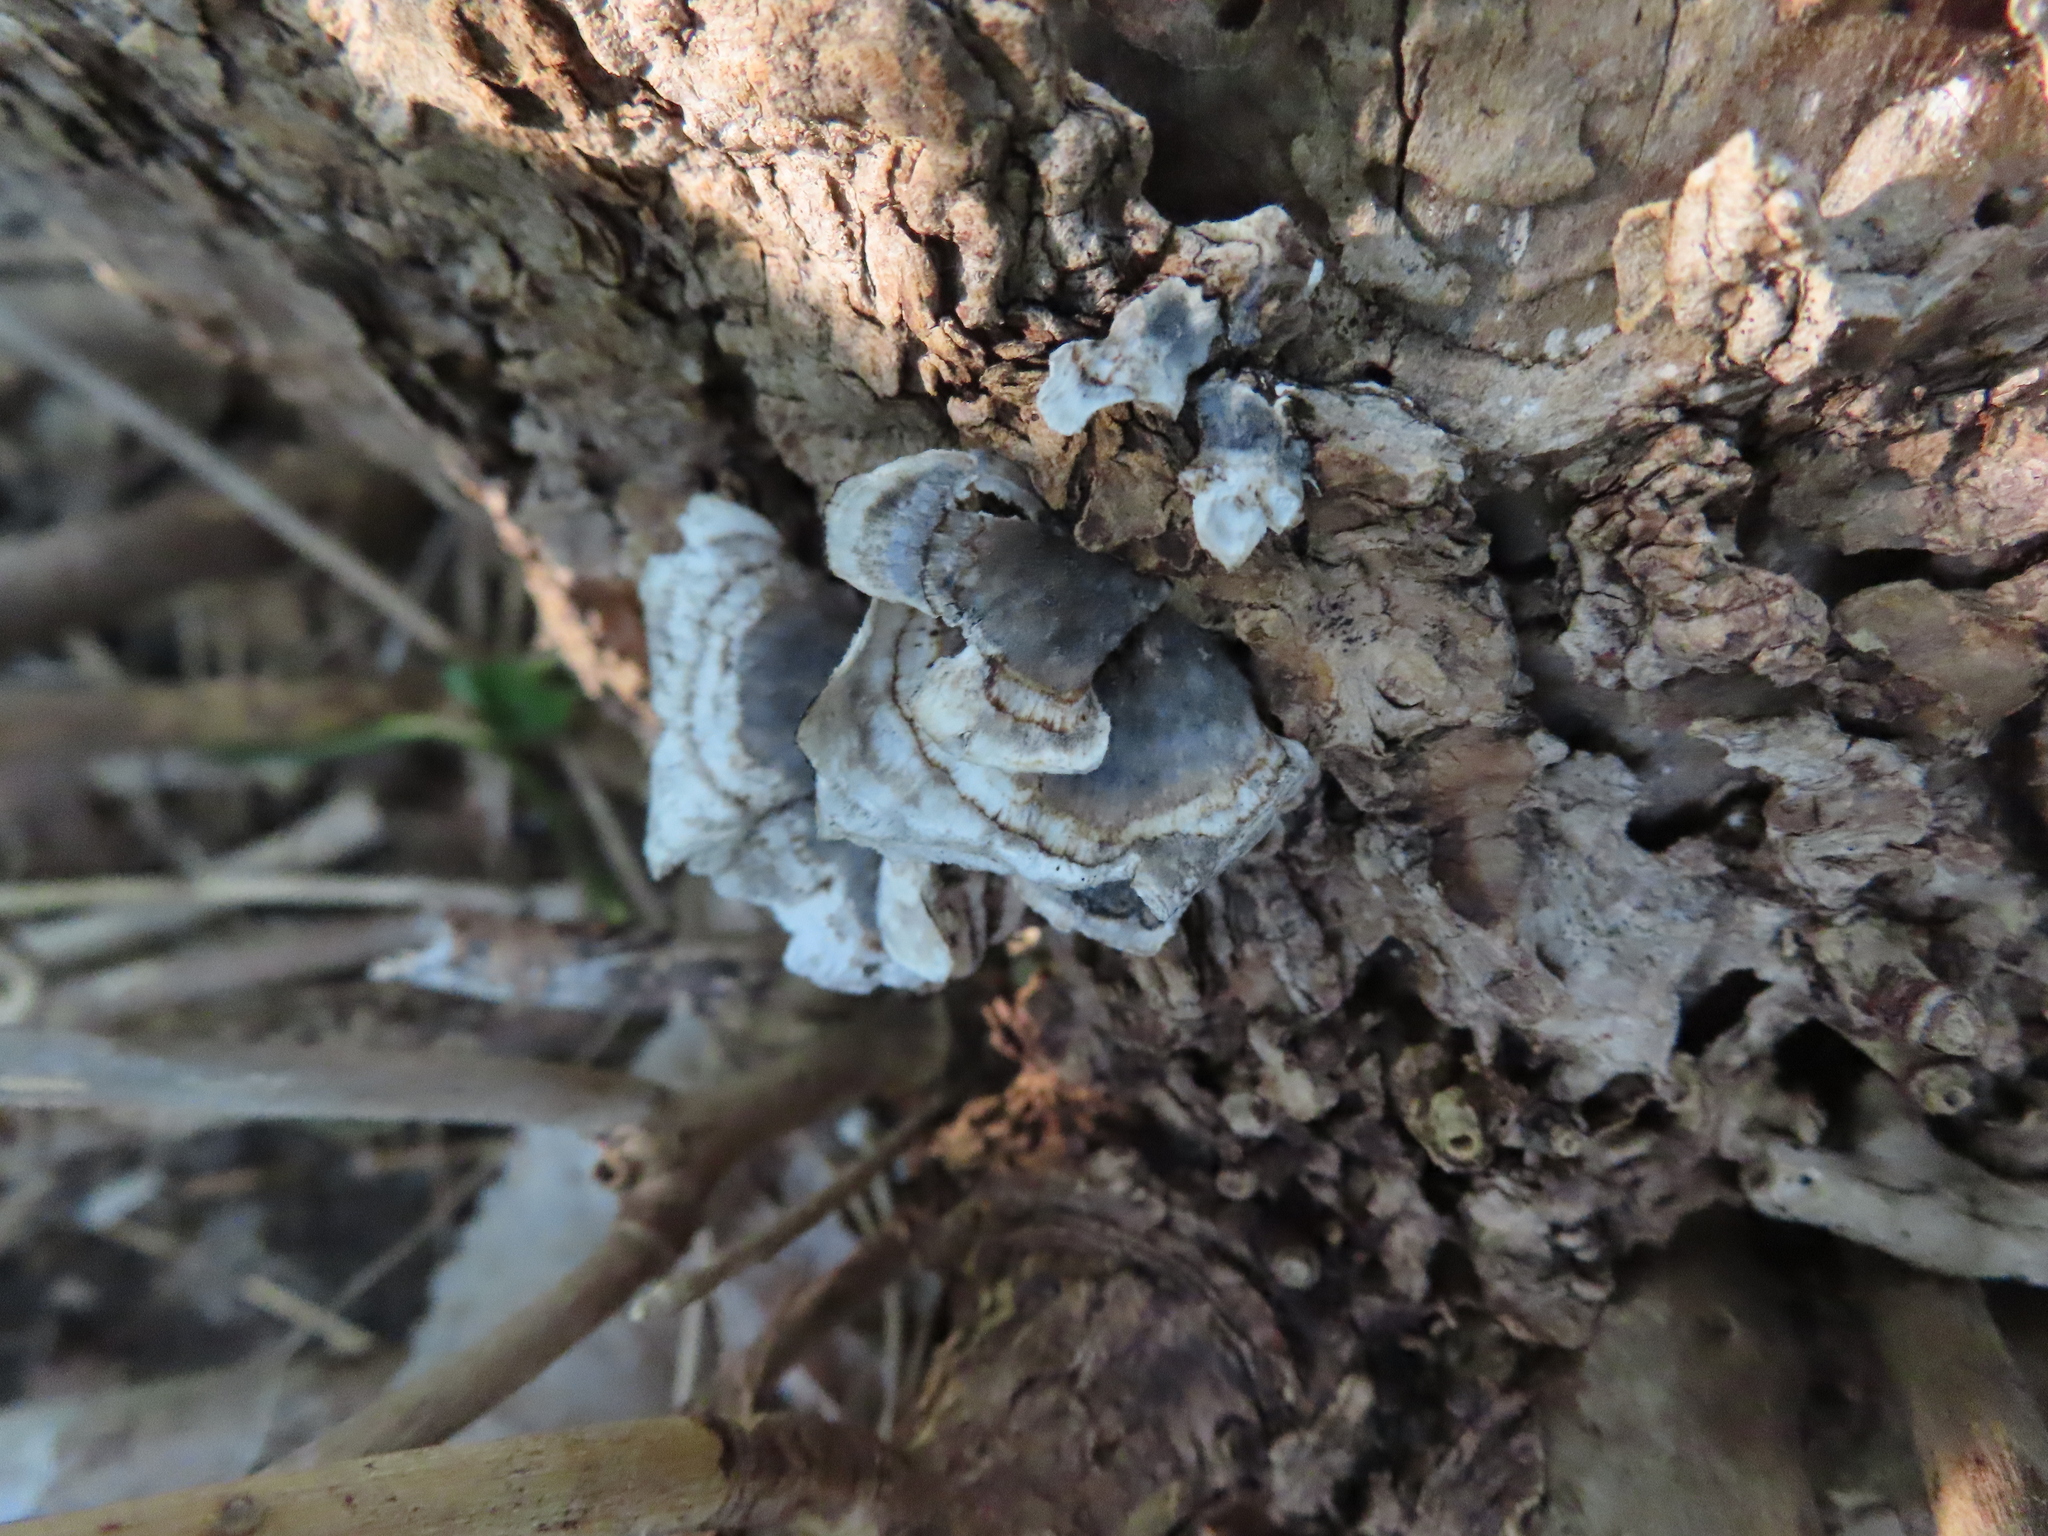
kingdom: Fungi
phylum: Basidiomycota
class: Agaricomycetes
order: Polyporales
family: Polyporaceae
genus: Trametes
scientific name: Trametes versicolor
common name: Turkeytail
